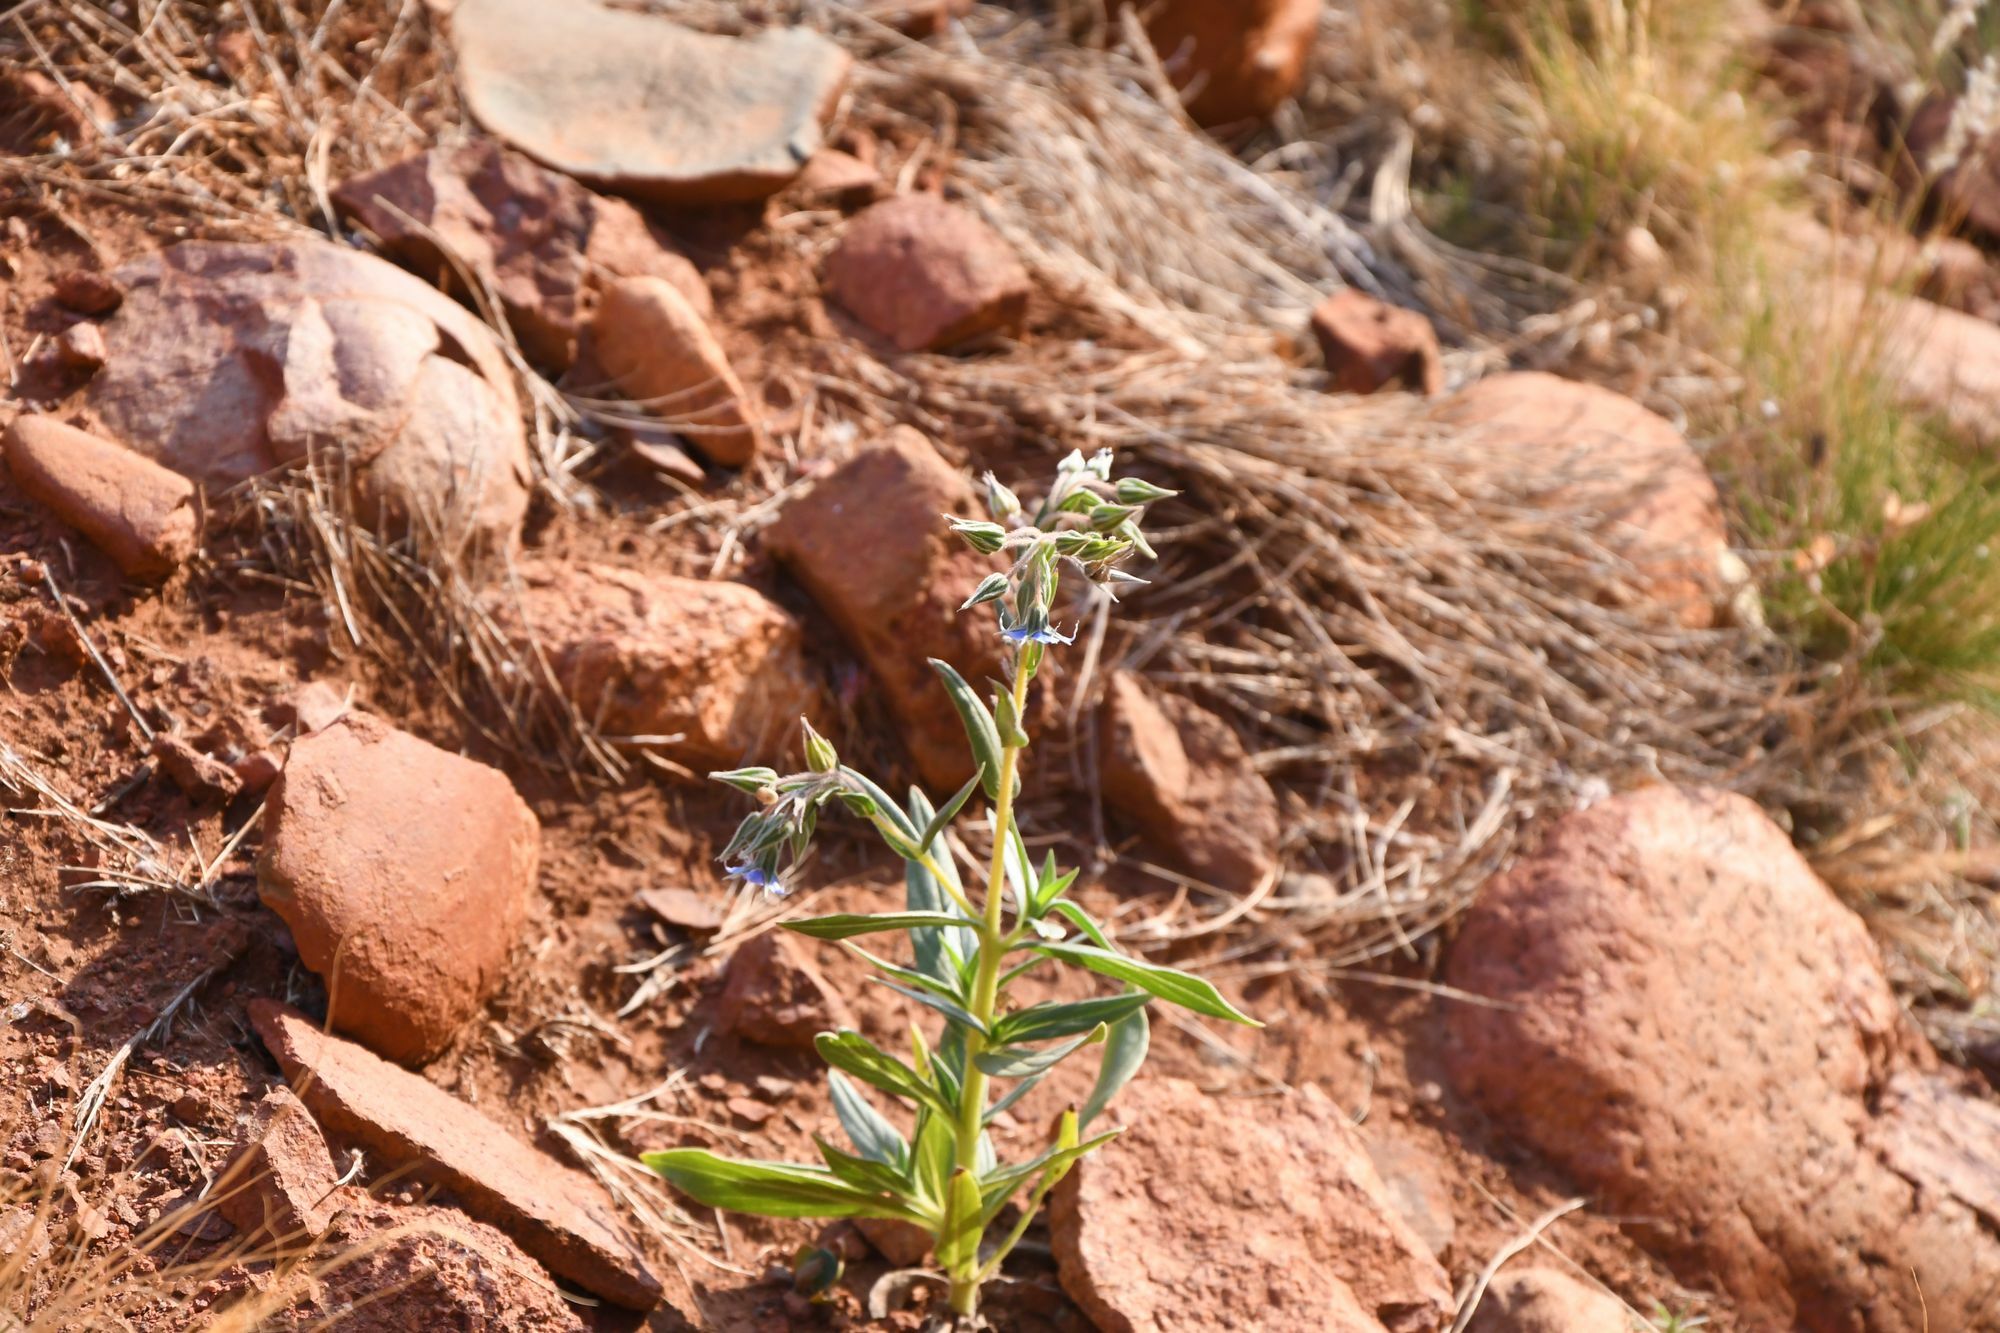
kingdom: Plantae
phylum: Tracheophyta
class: Magnoliopsida
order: Boraginales
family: Boraginaceae
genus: Trichodesma
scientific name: Trichodesma zeylanicum
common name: Camelbush
